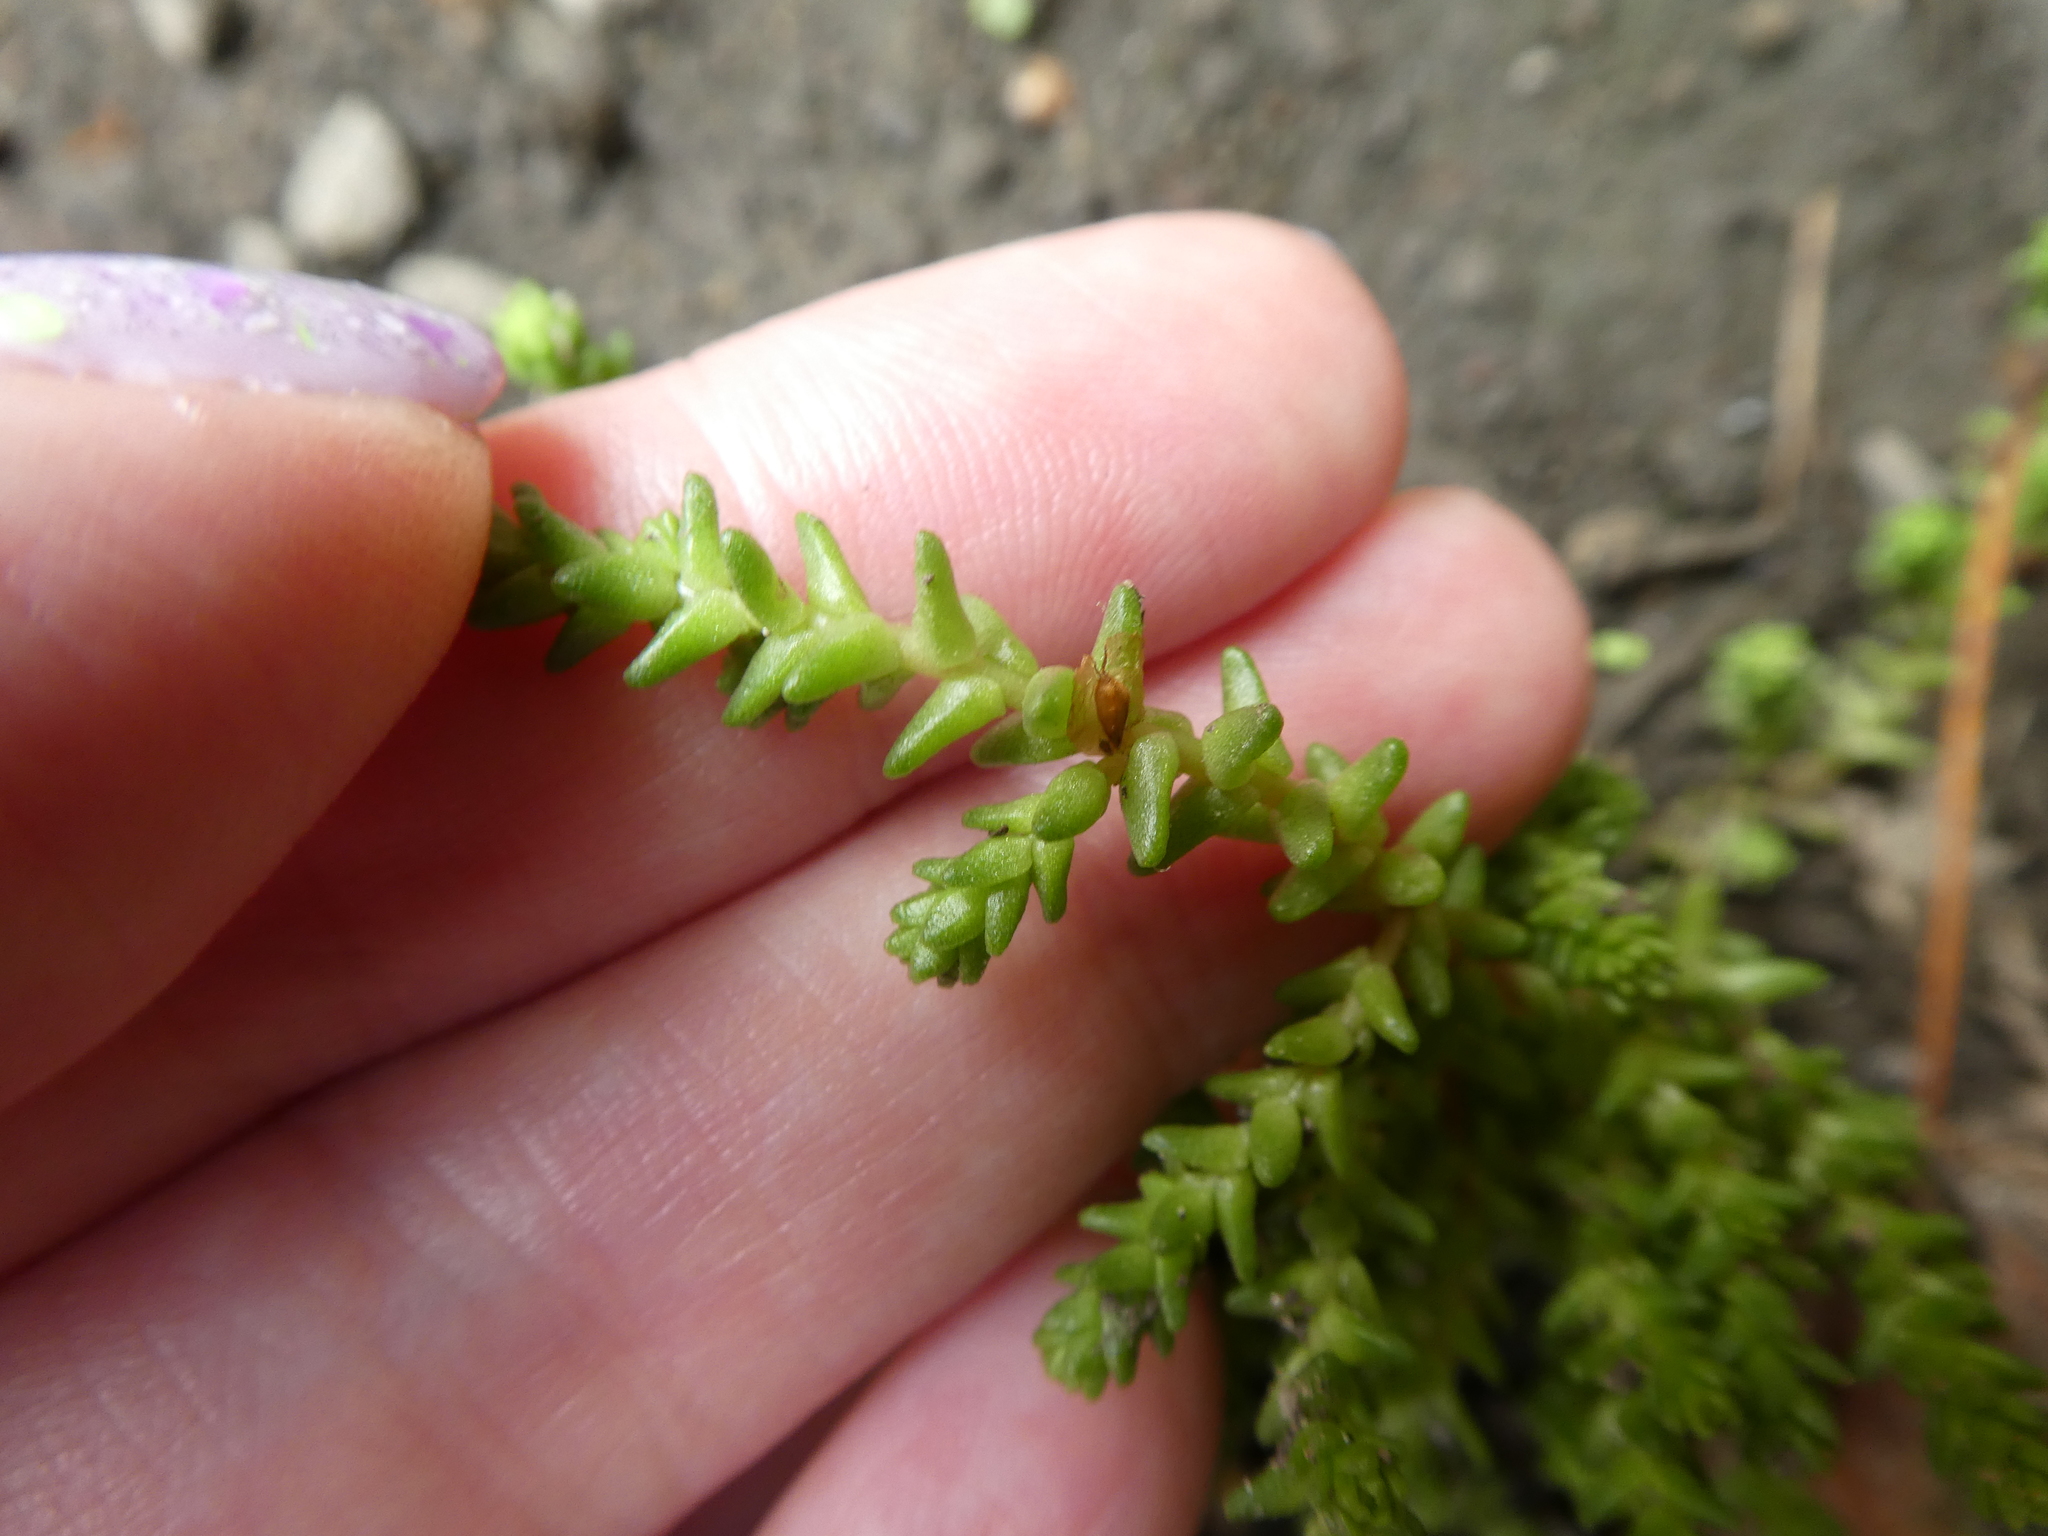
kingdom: Plantae
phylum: Tracheophyta
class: Magnoliopsida
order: Saxifragales
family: Crassulaceae
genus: Sedum
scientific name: Sedum acre
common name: Biting stonecrop
